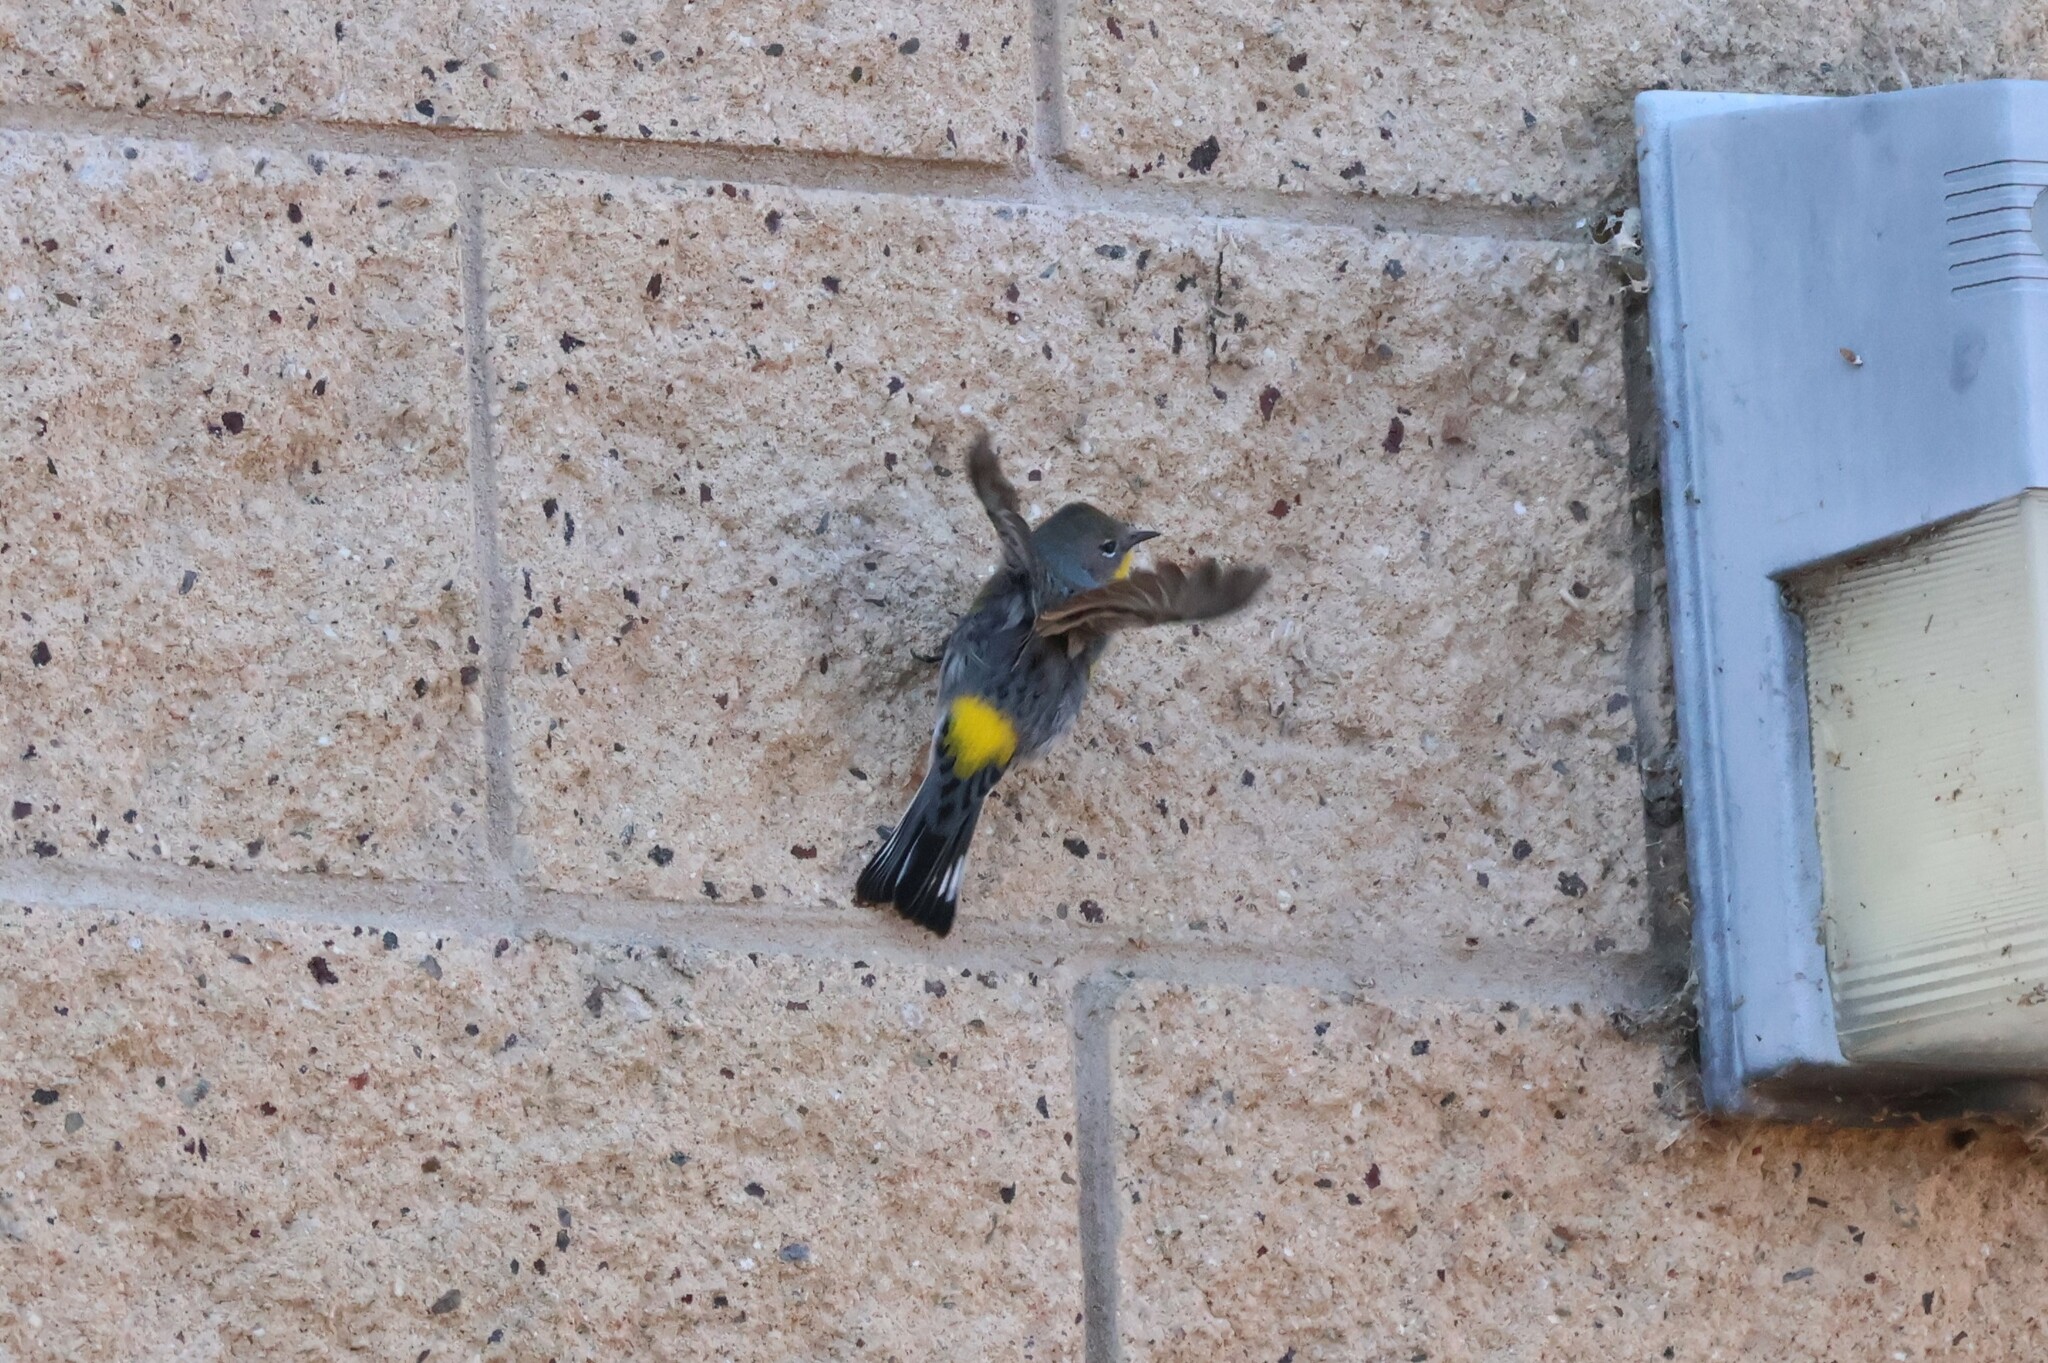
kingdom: Animalia
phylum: Chordata
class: Aves
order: Passeriformes
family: Parulidae
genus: Setophaga
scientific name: Setophaga auduboni
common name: Audubon's warbler
